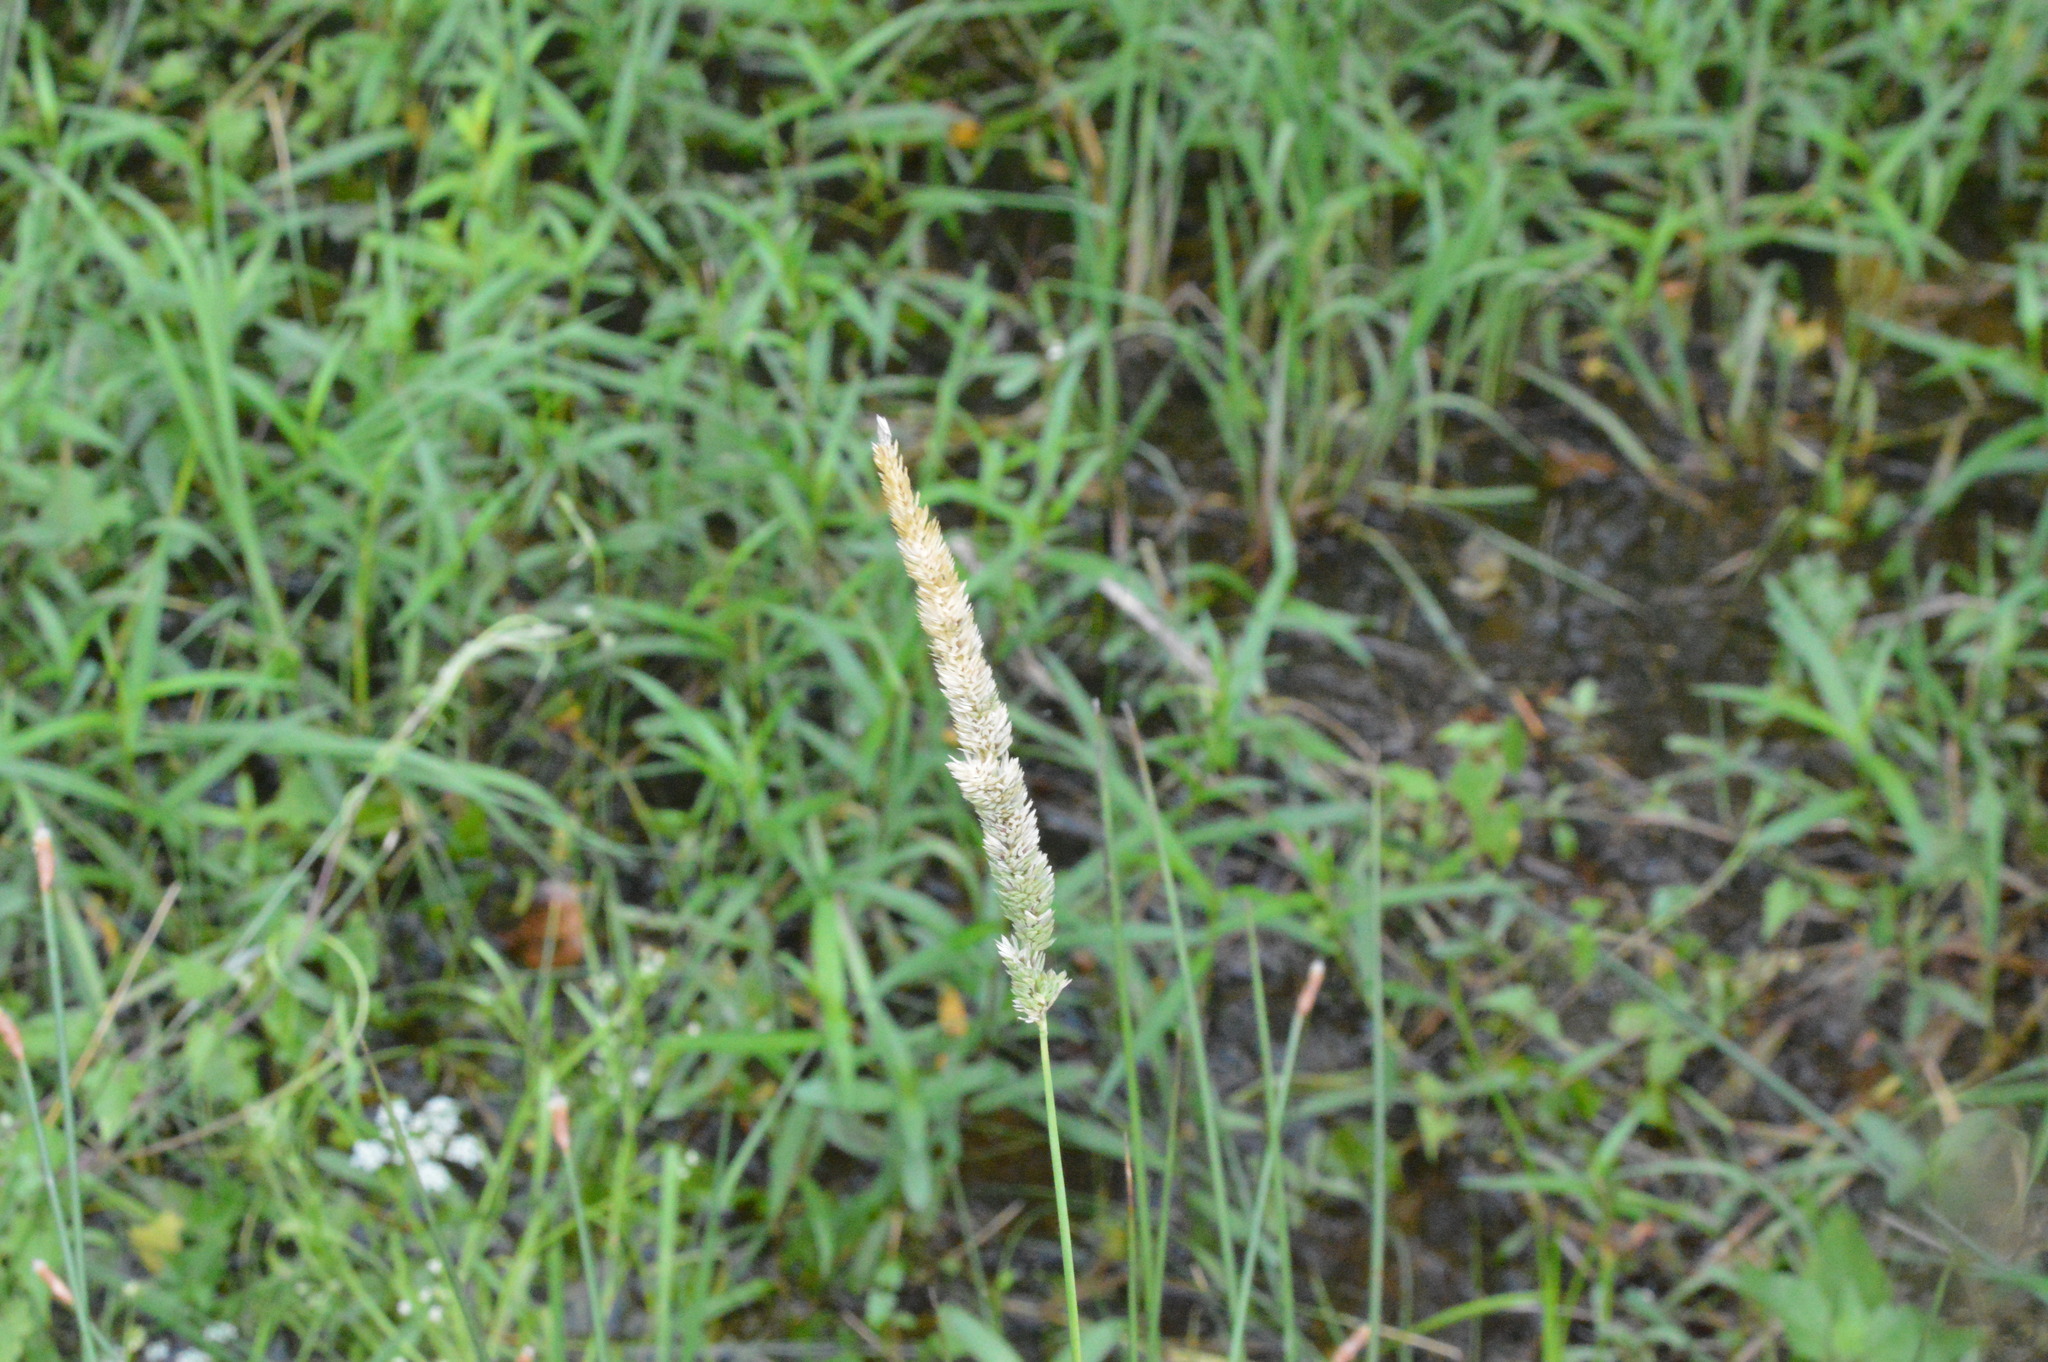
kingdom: Plantae
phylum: Tracheophyta
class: Liliopsida
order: Poales
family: Poaceae
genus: Phalaris
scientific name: Phalaris angusta
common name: Narrow canary grass
